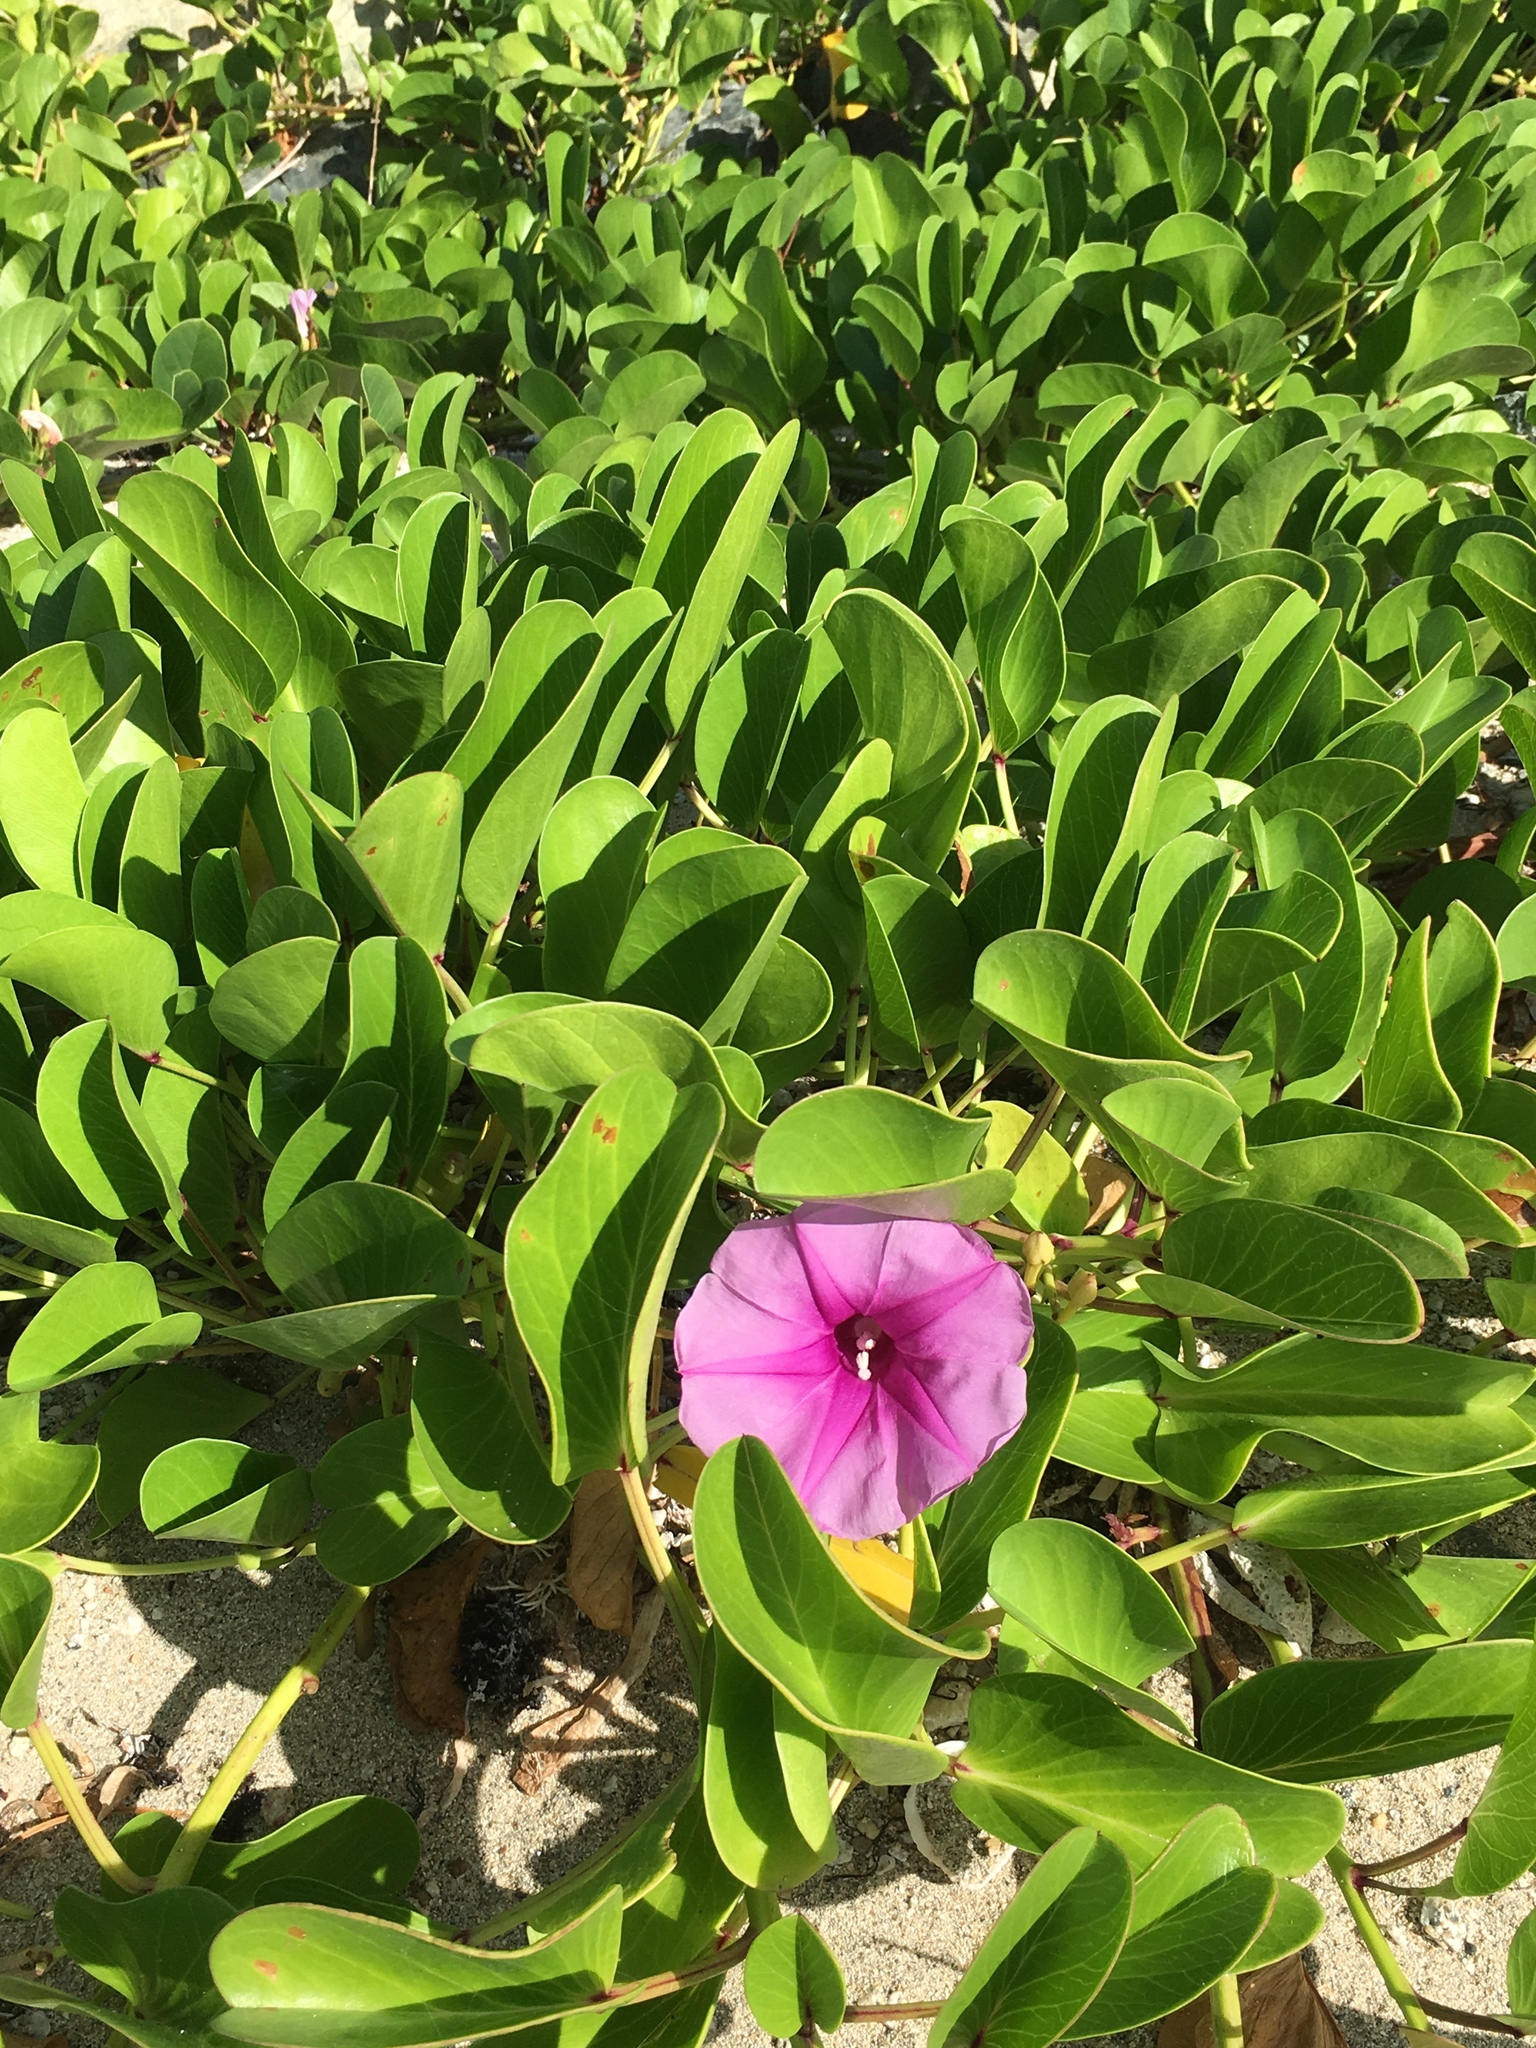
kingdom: Plantae
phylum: Tracheophyta
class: Magnoliopsida
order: Solanales
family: Convolvulaceae
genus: Ipomoea
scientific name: Ipomoea pes-caprae
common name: Beach morning glory
